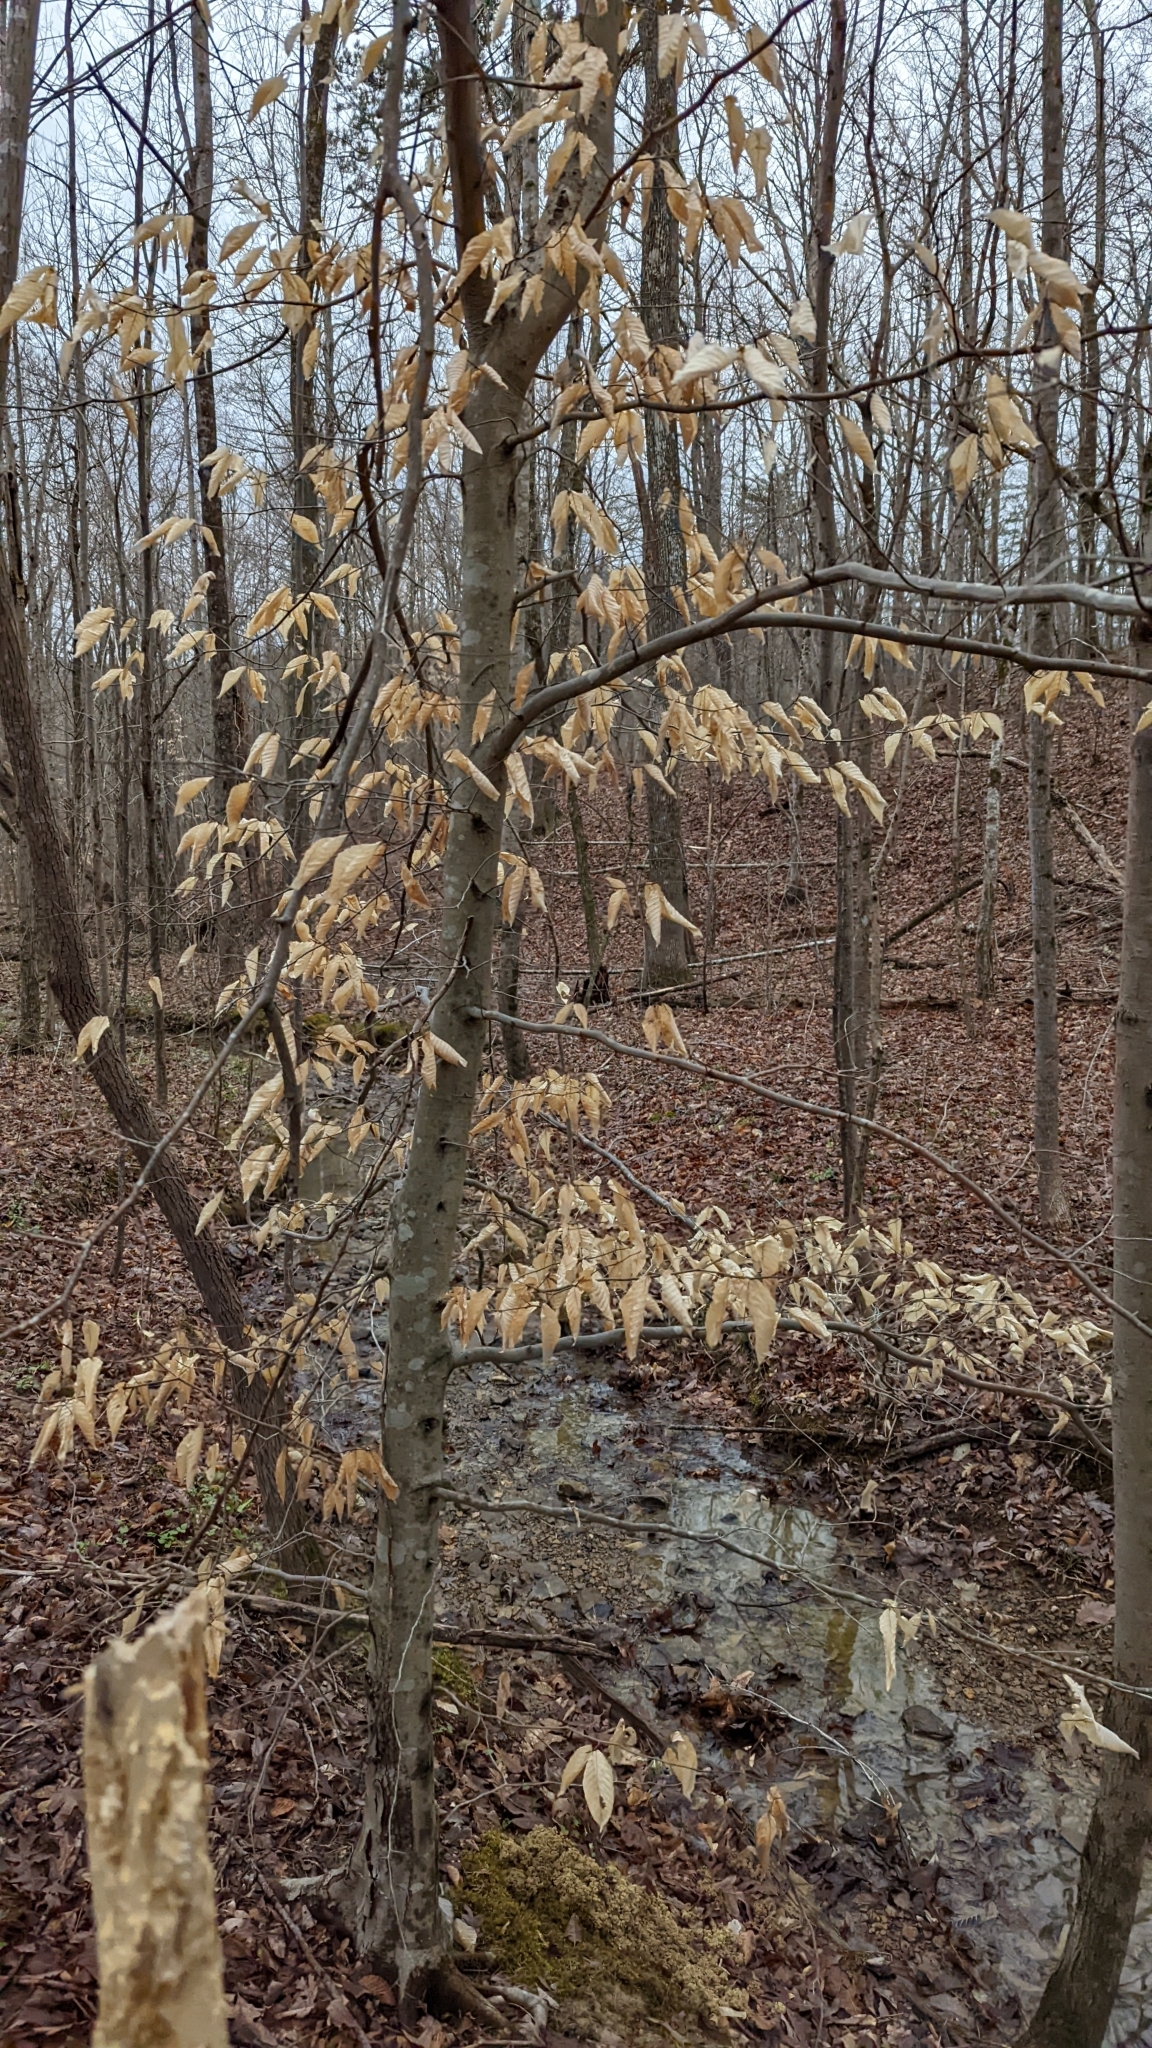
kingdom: Plantae
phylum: Tracheophyta
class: Magnoliopsida
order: Fagales
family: Fagaceae
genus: Fagus
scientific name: Fagus grandifolia
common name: American beech
